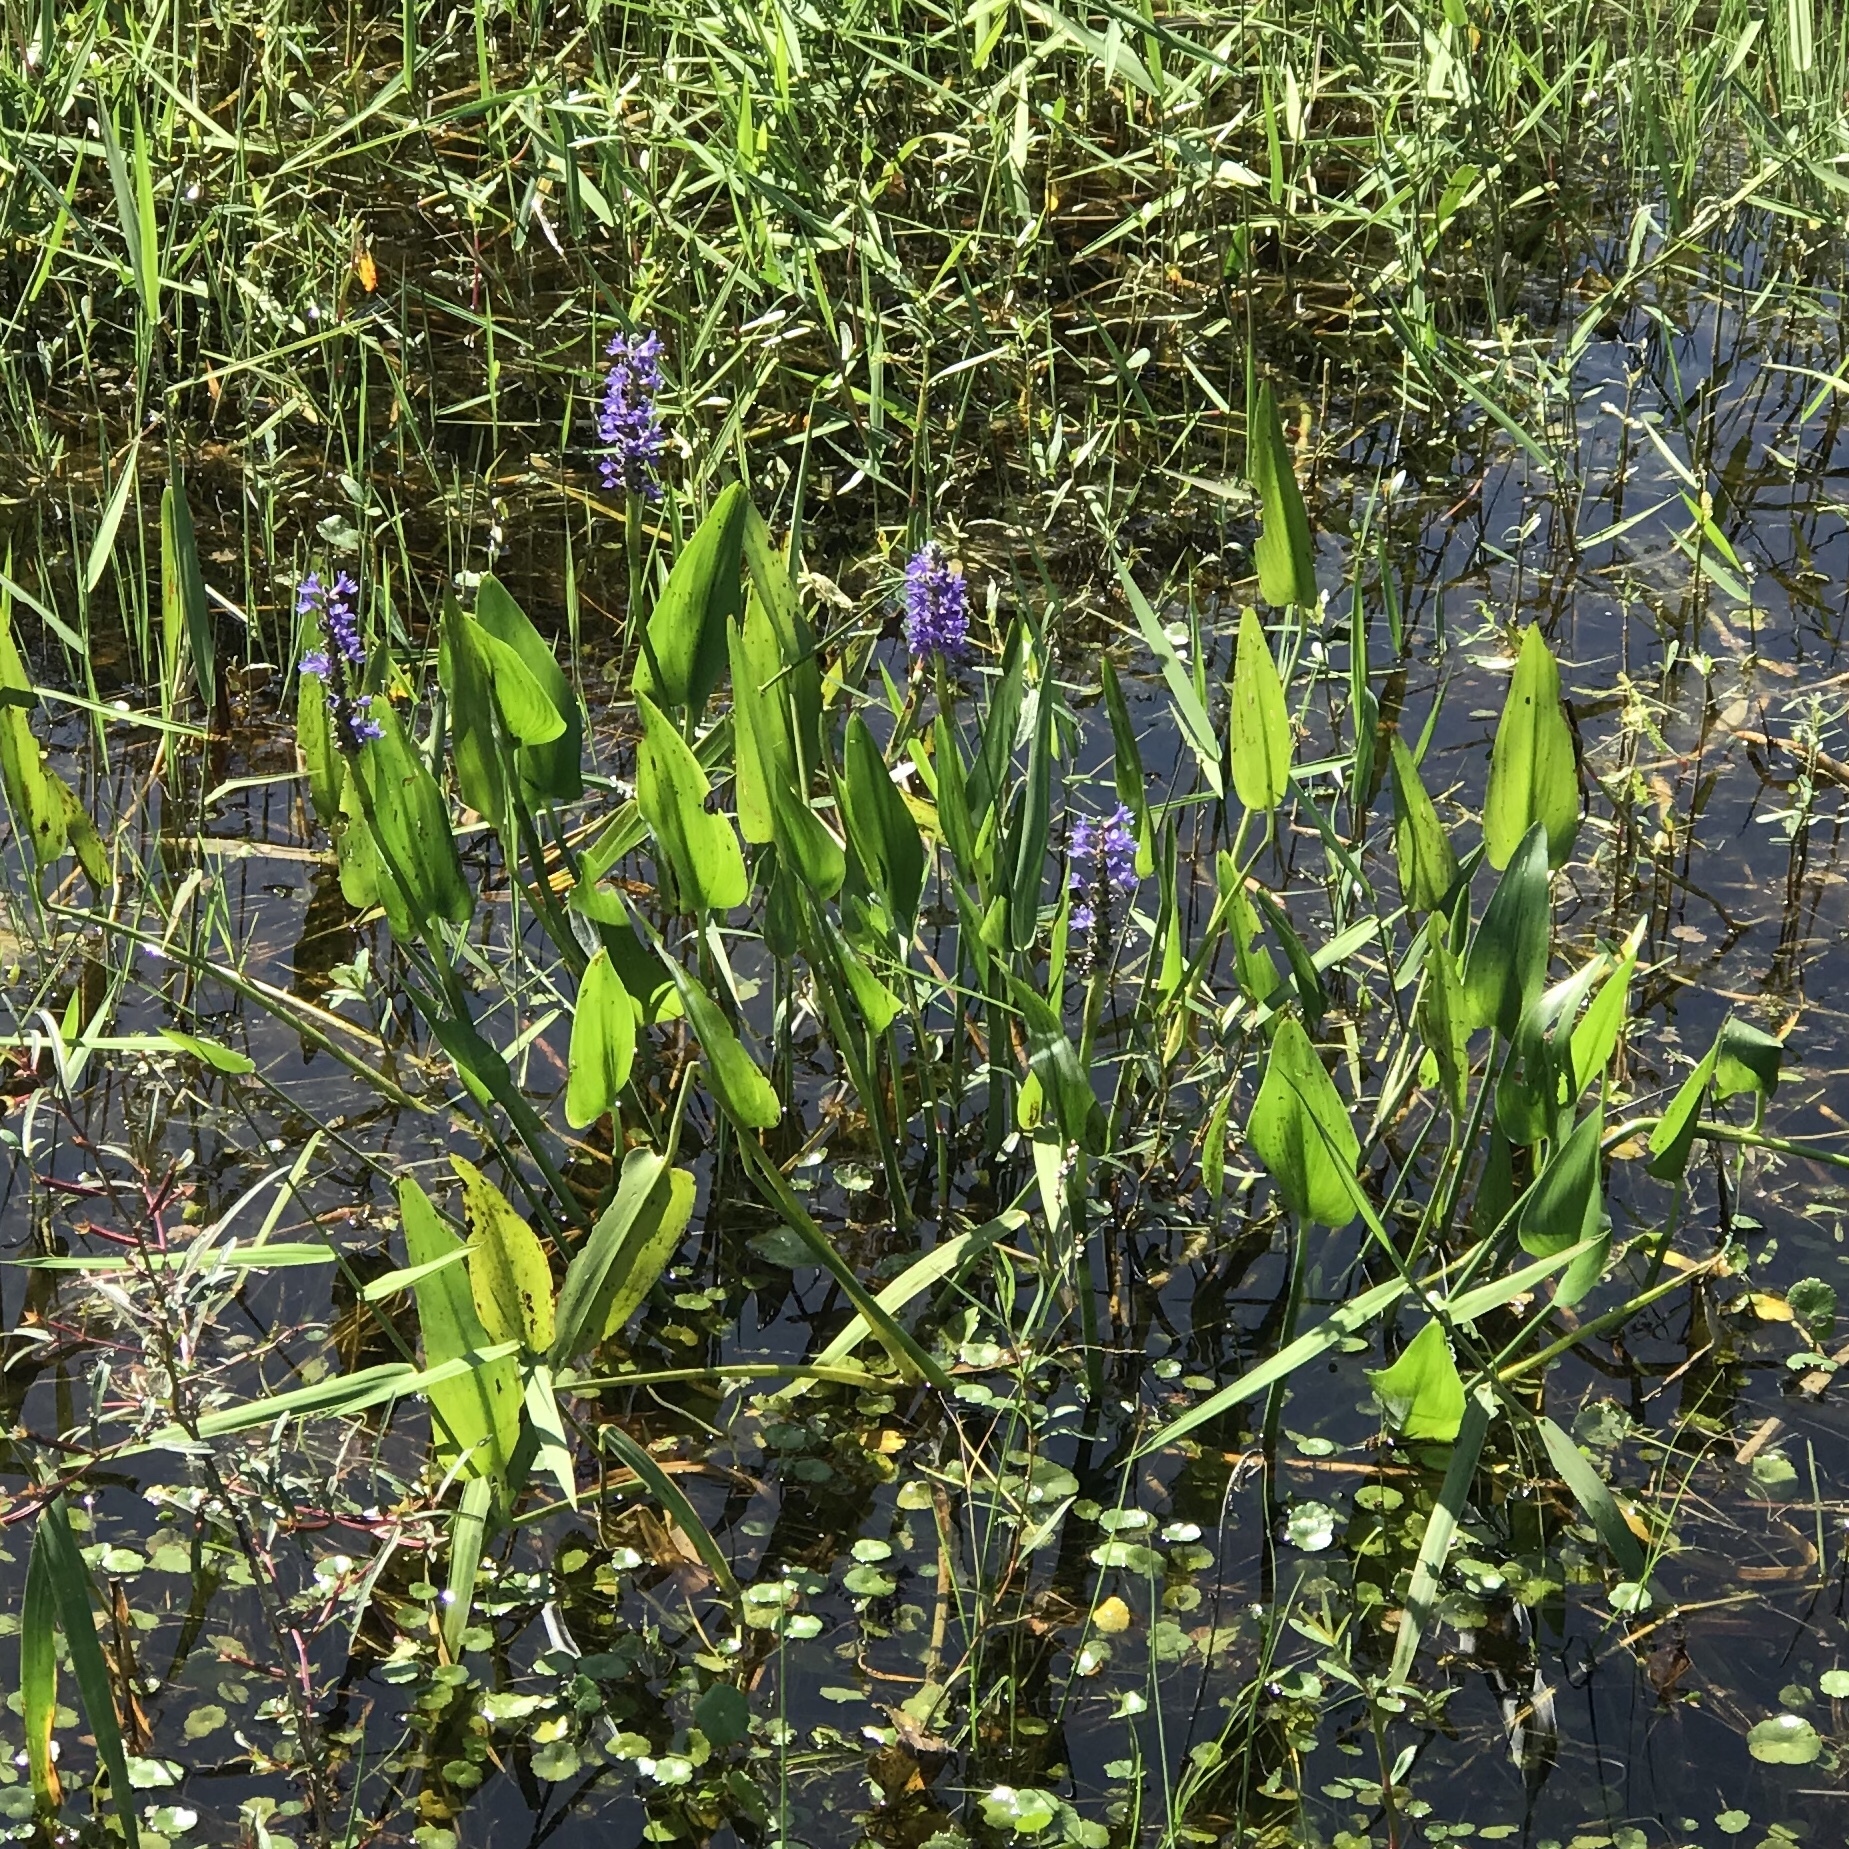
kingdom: Plantae
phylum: Tracheophyta
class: Liliopsida
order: Commelinales
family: Pontederiaceae
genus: Pontederia
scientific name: Pontederia cordata
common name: Pickerelweed
